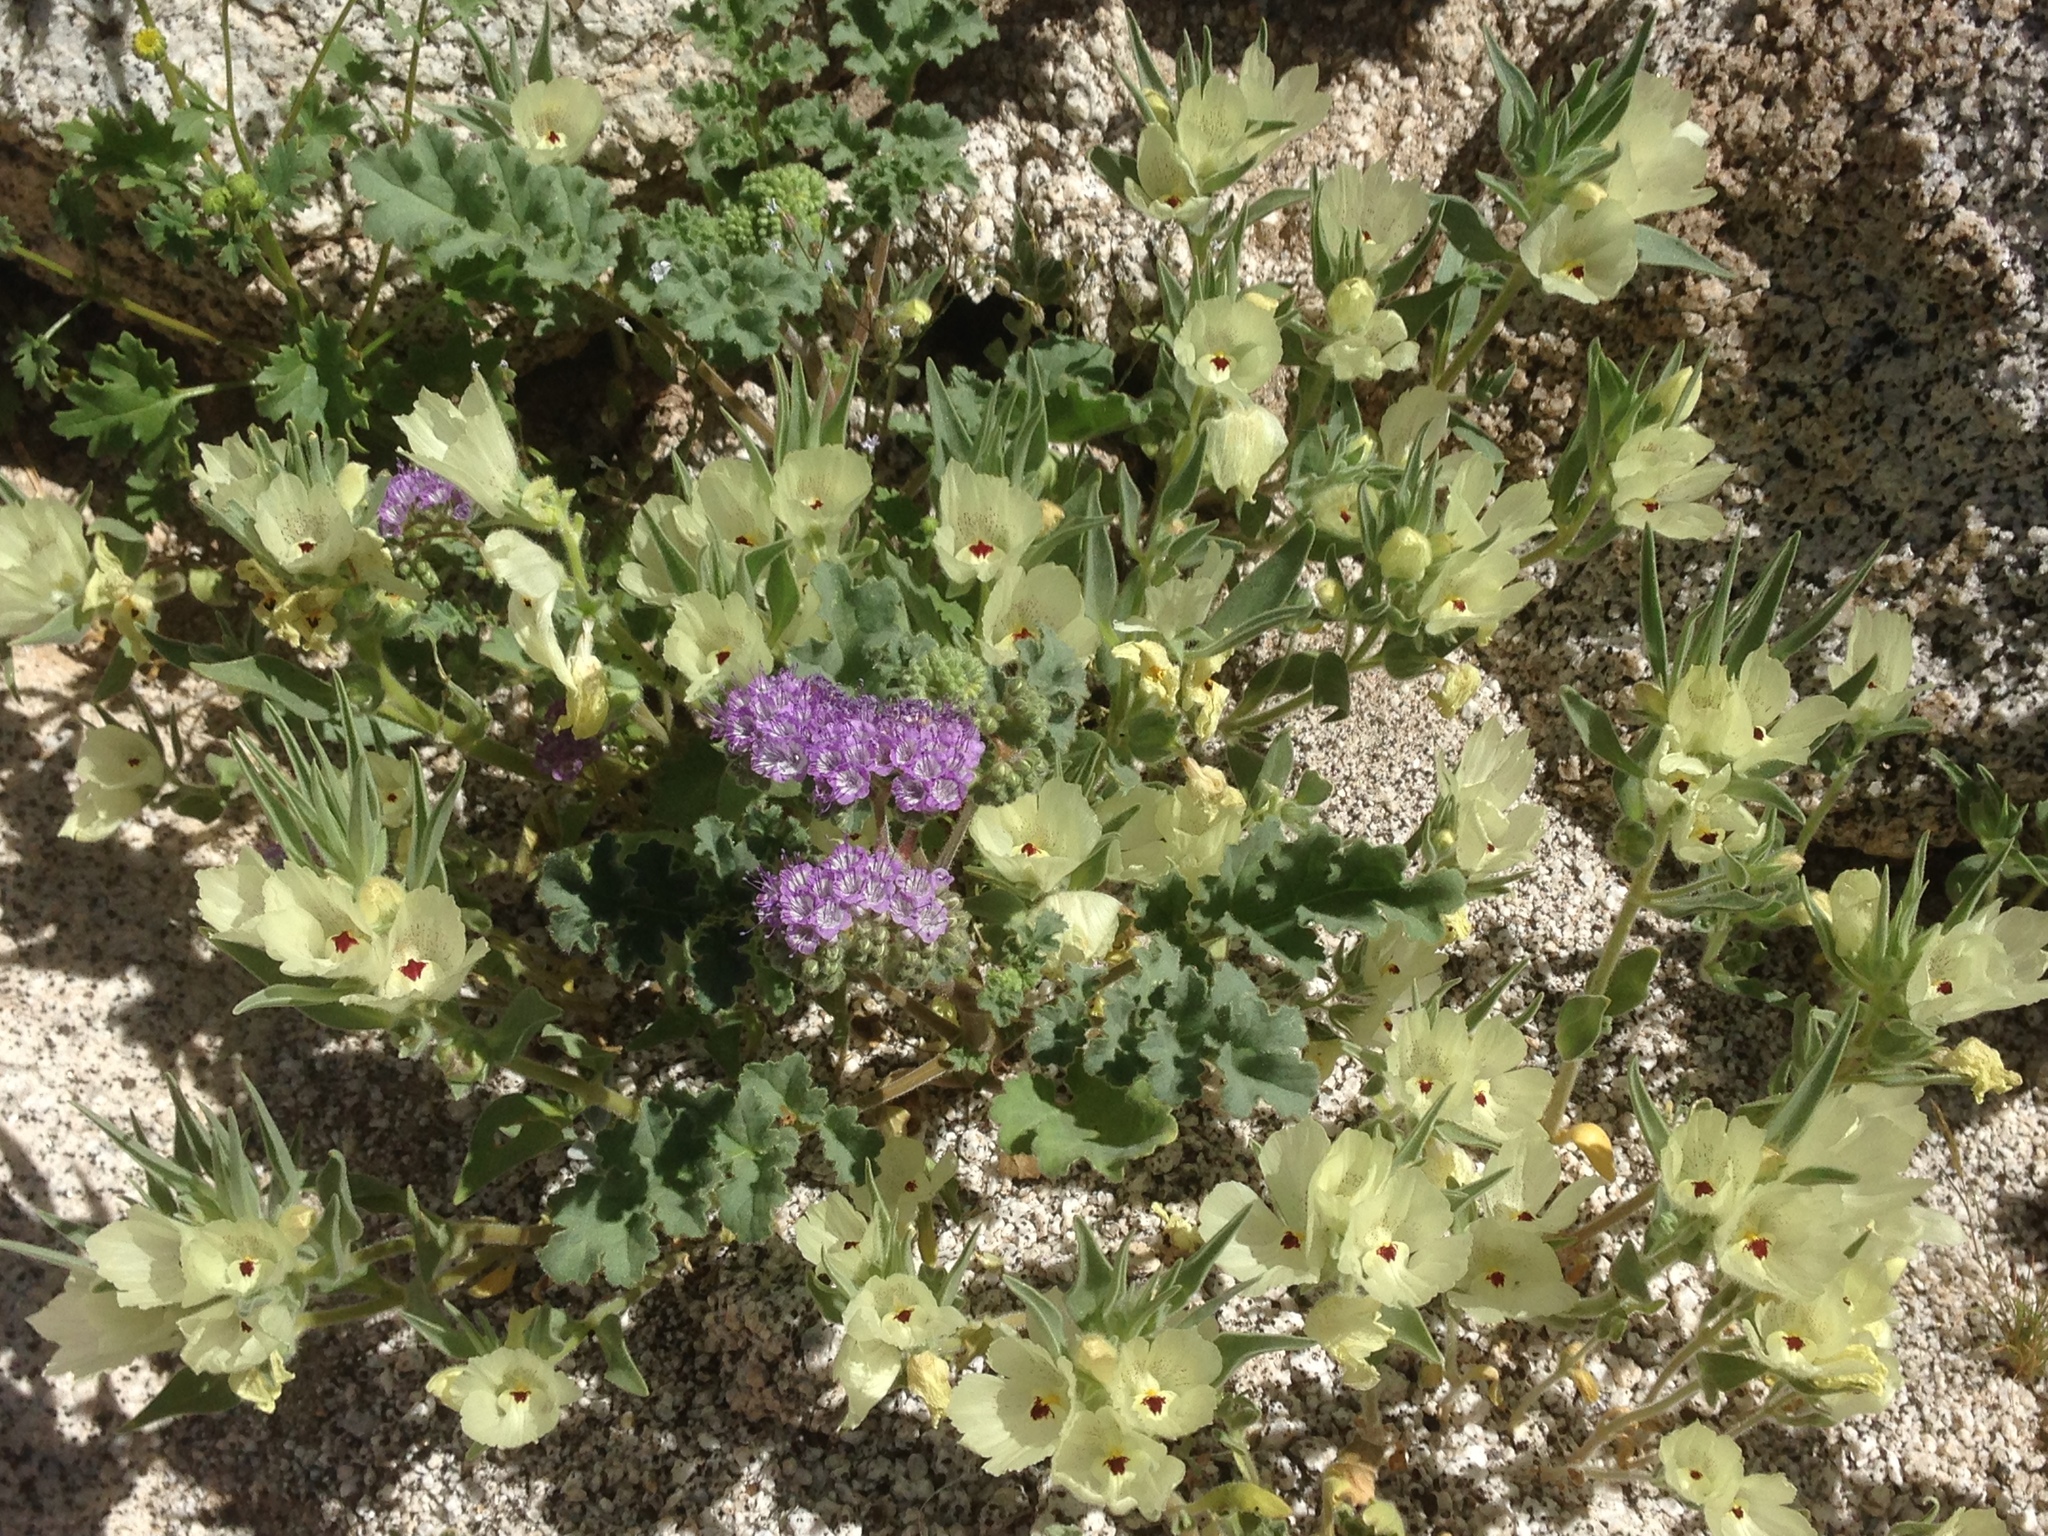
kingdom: Plantae
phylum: Tracheophyta
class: Magnoliopsida
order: Boraginales
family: Hydrophyllaceae
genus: Phacelia
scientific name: Phacelia pedicellata
